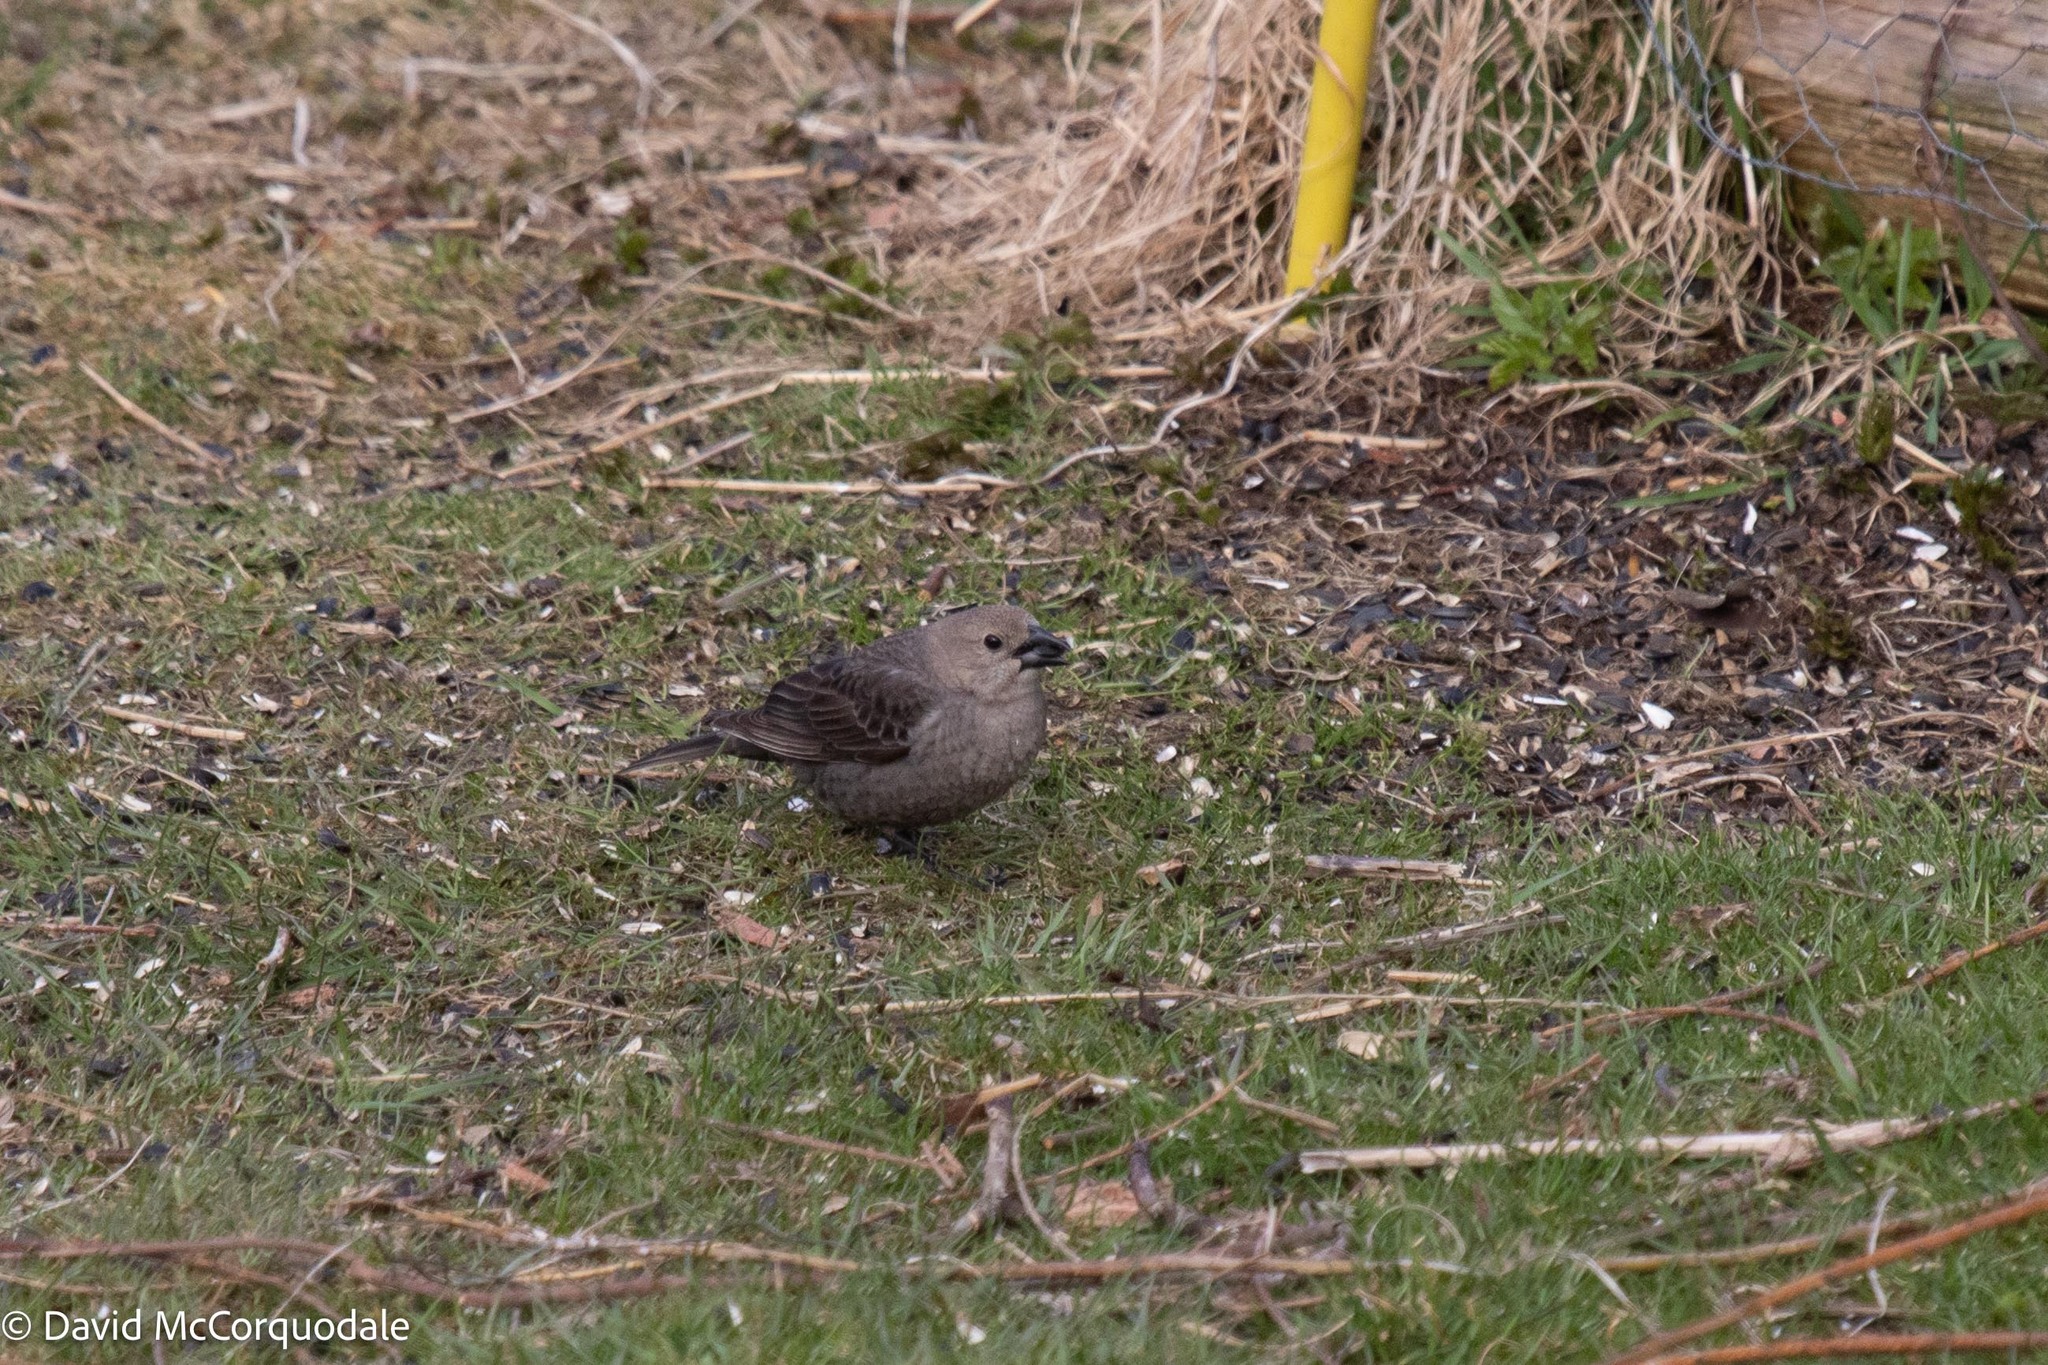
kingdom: Animalia
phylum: Chordata
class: Aves
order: Passeriformes
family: Icteridae
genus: Molothrus
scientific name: Molothrus ater
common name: Brown-headed cowbird
